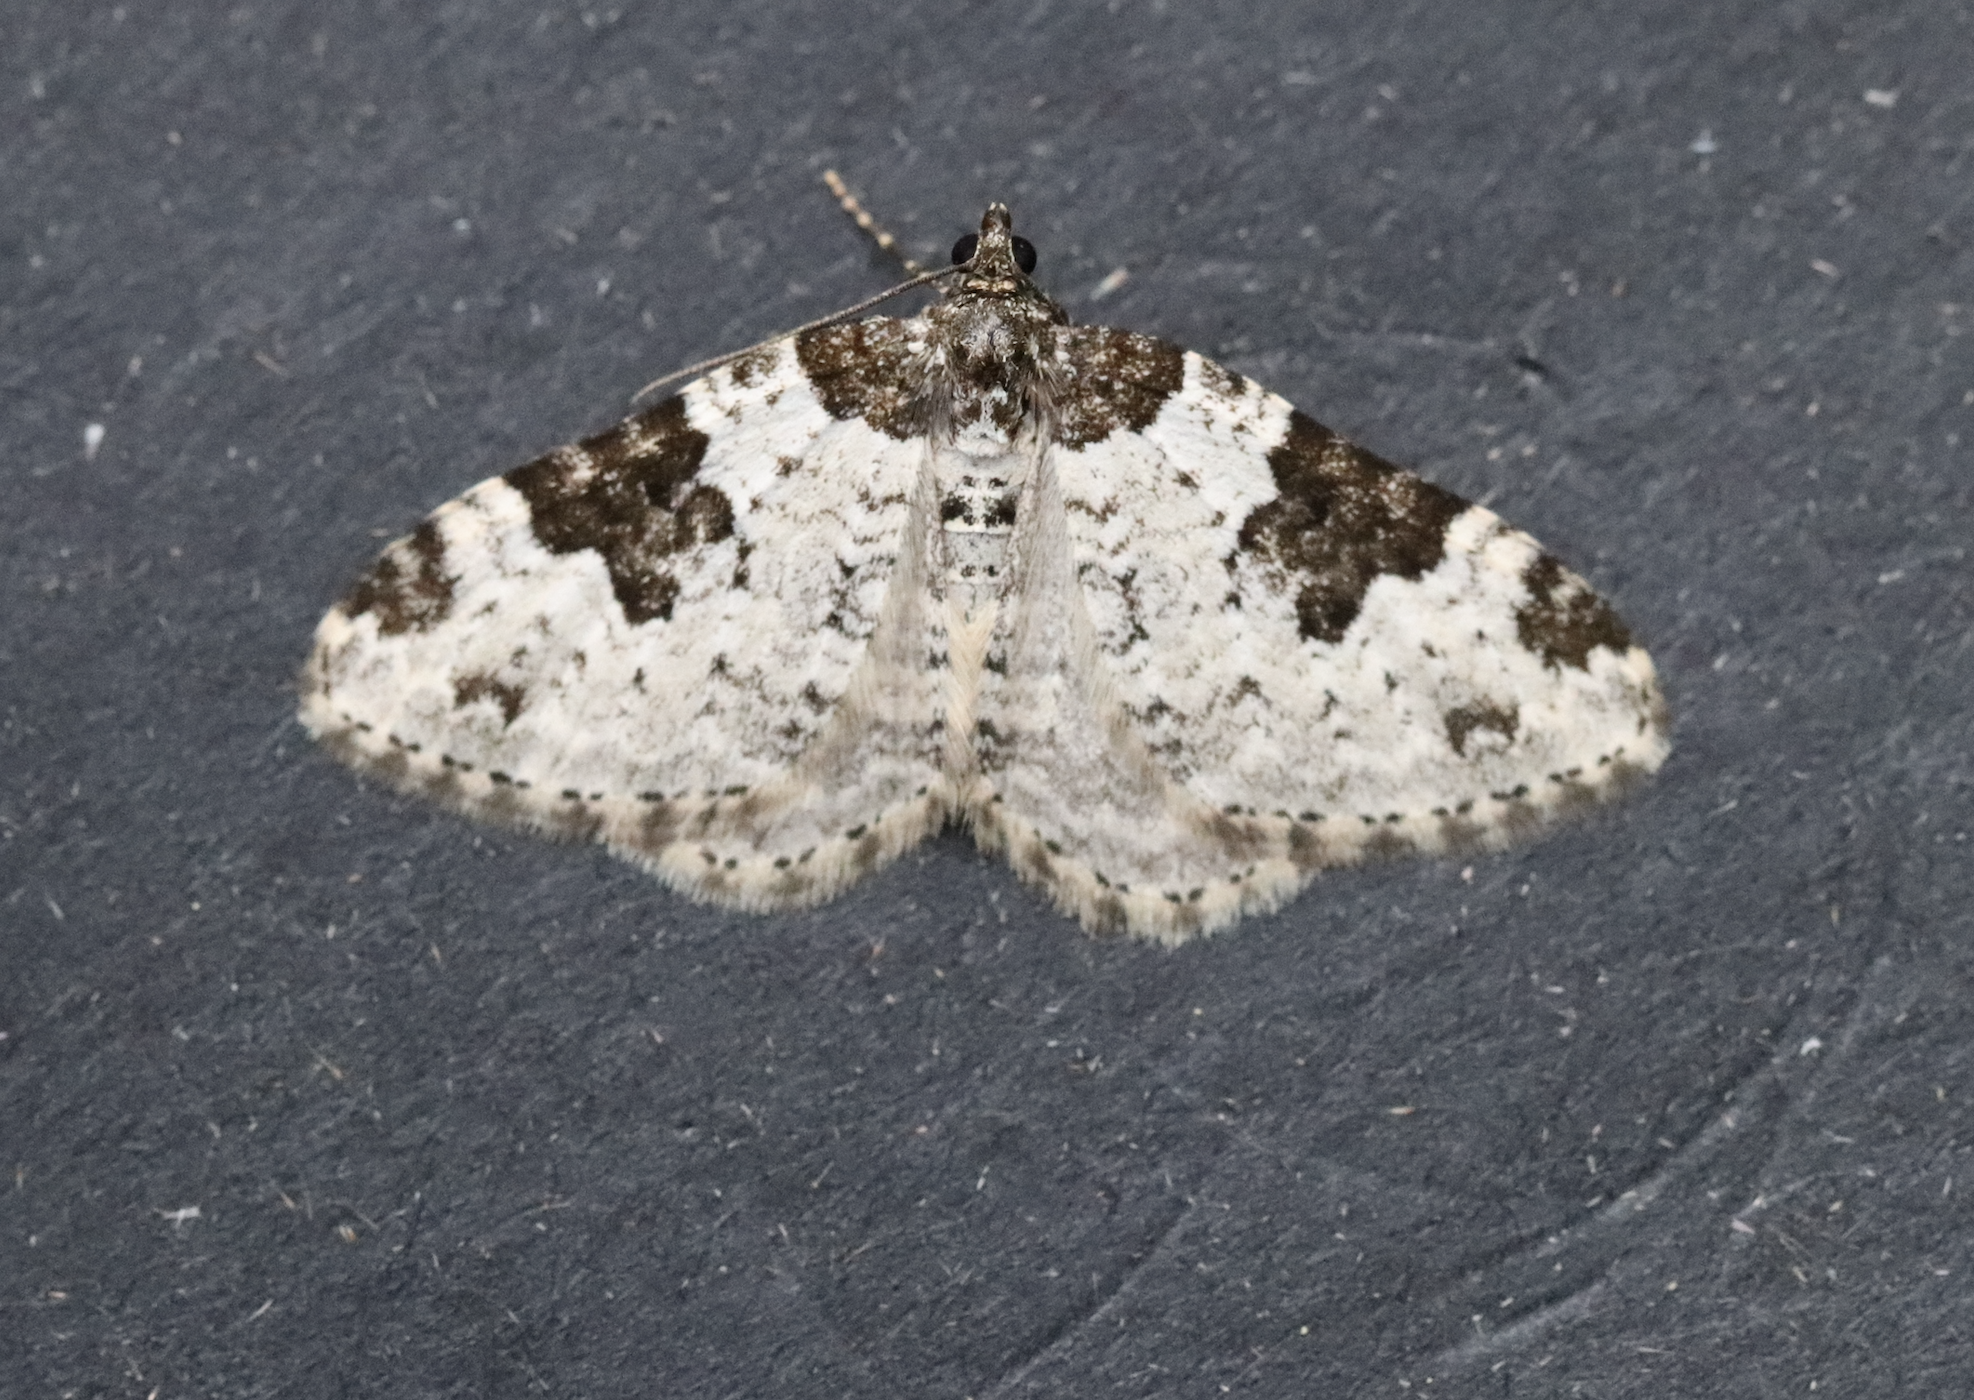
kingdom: Animalia
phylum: Arthropoda
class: Insecta
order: Lepidoptera
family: Geometridae
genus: Xanthorhoe
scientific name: Xanthorhoe fluctuata
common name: Garden carpet
